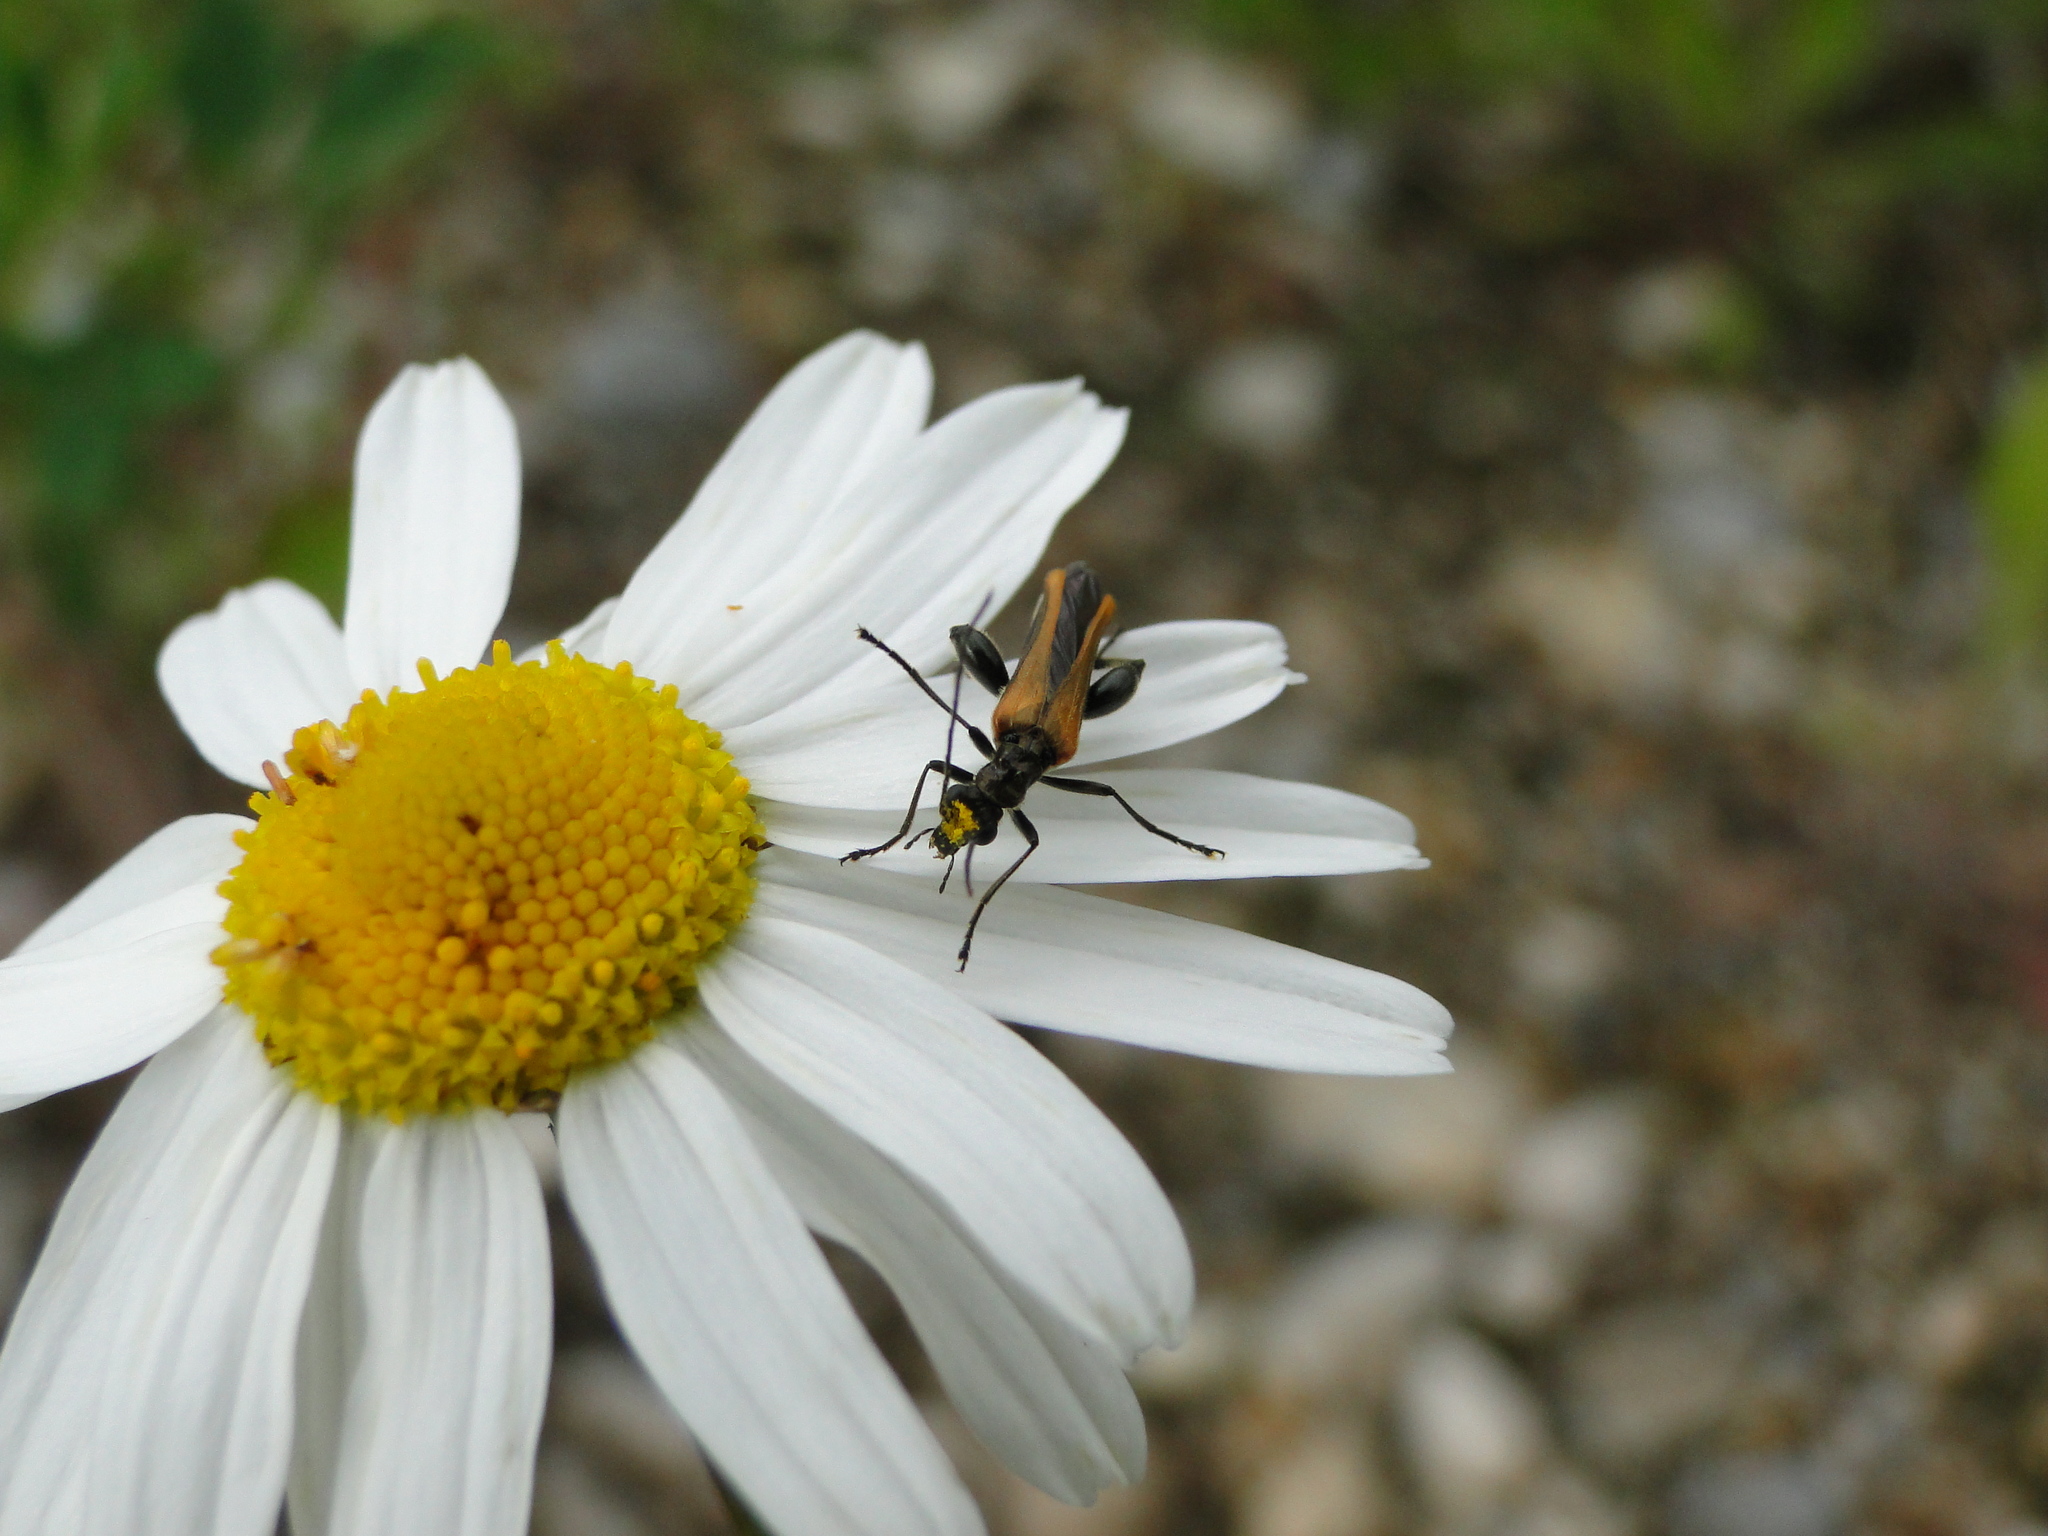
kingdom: Animalia
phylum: Arthropoda
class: Insecta
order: Coleoptera
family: Oedemeridae
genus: Oedemera
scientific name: Oedemera femorata
